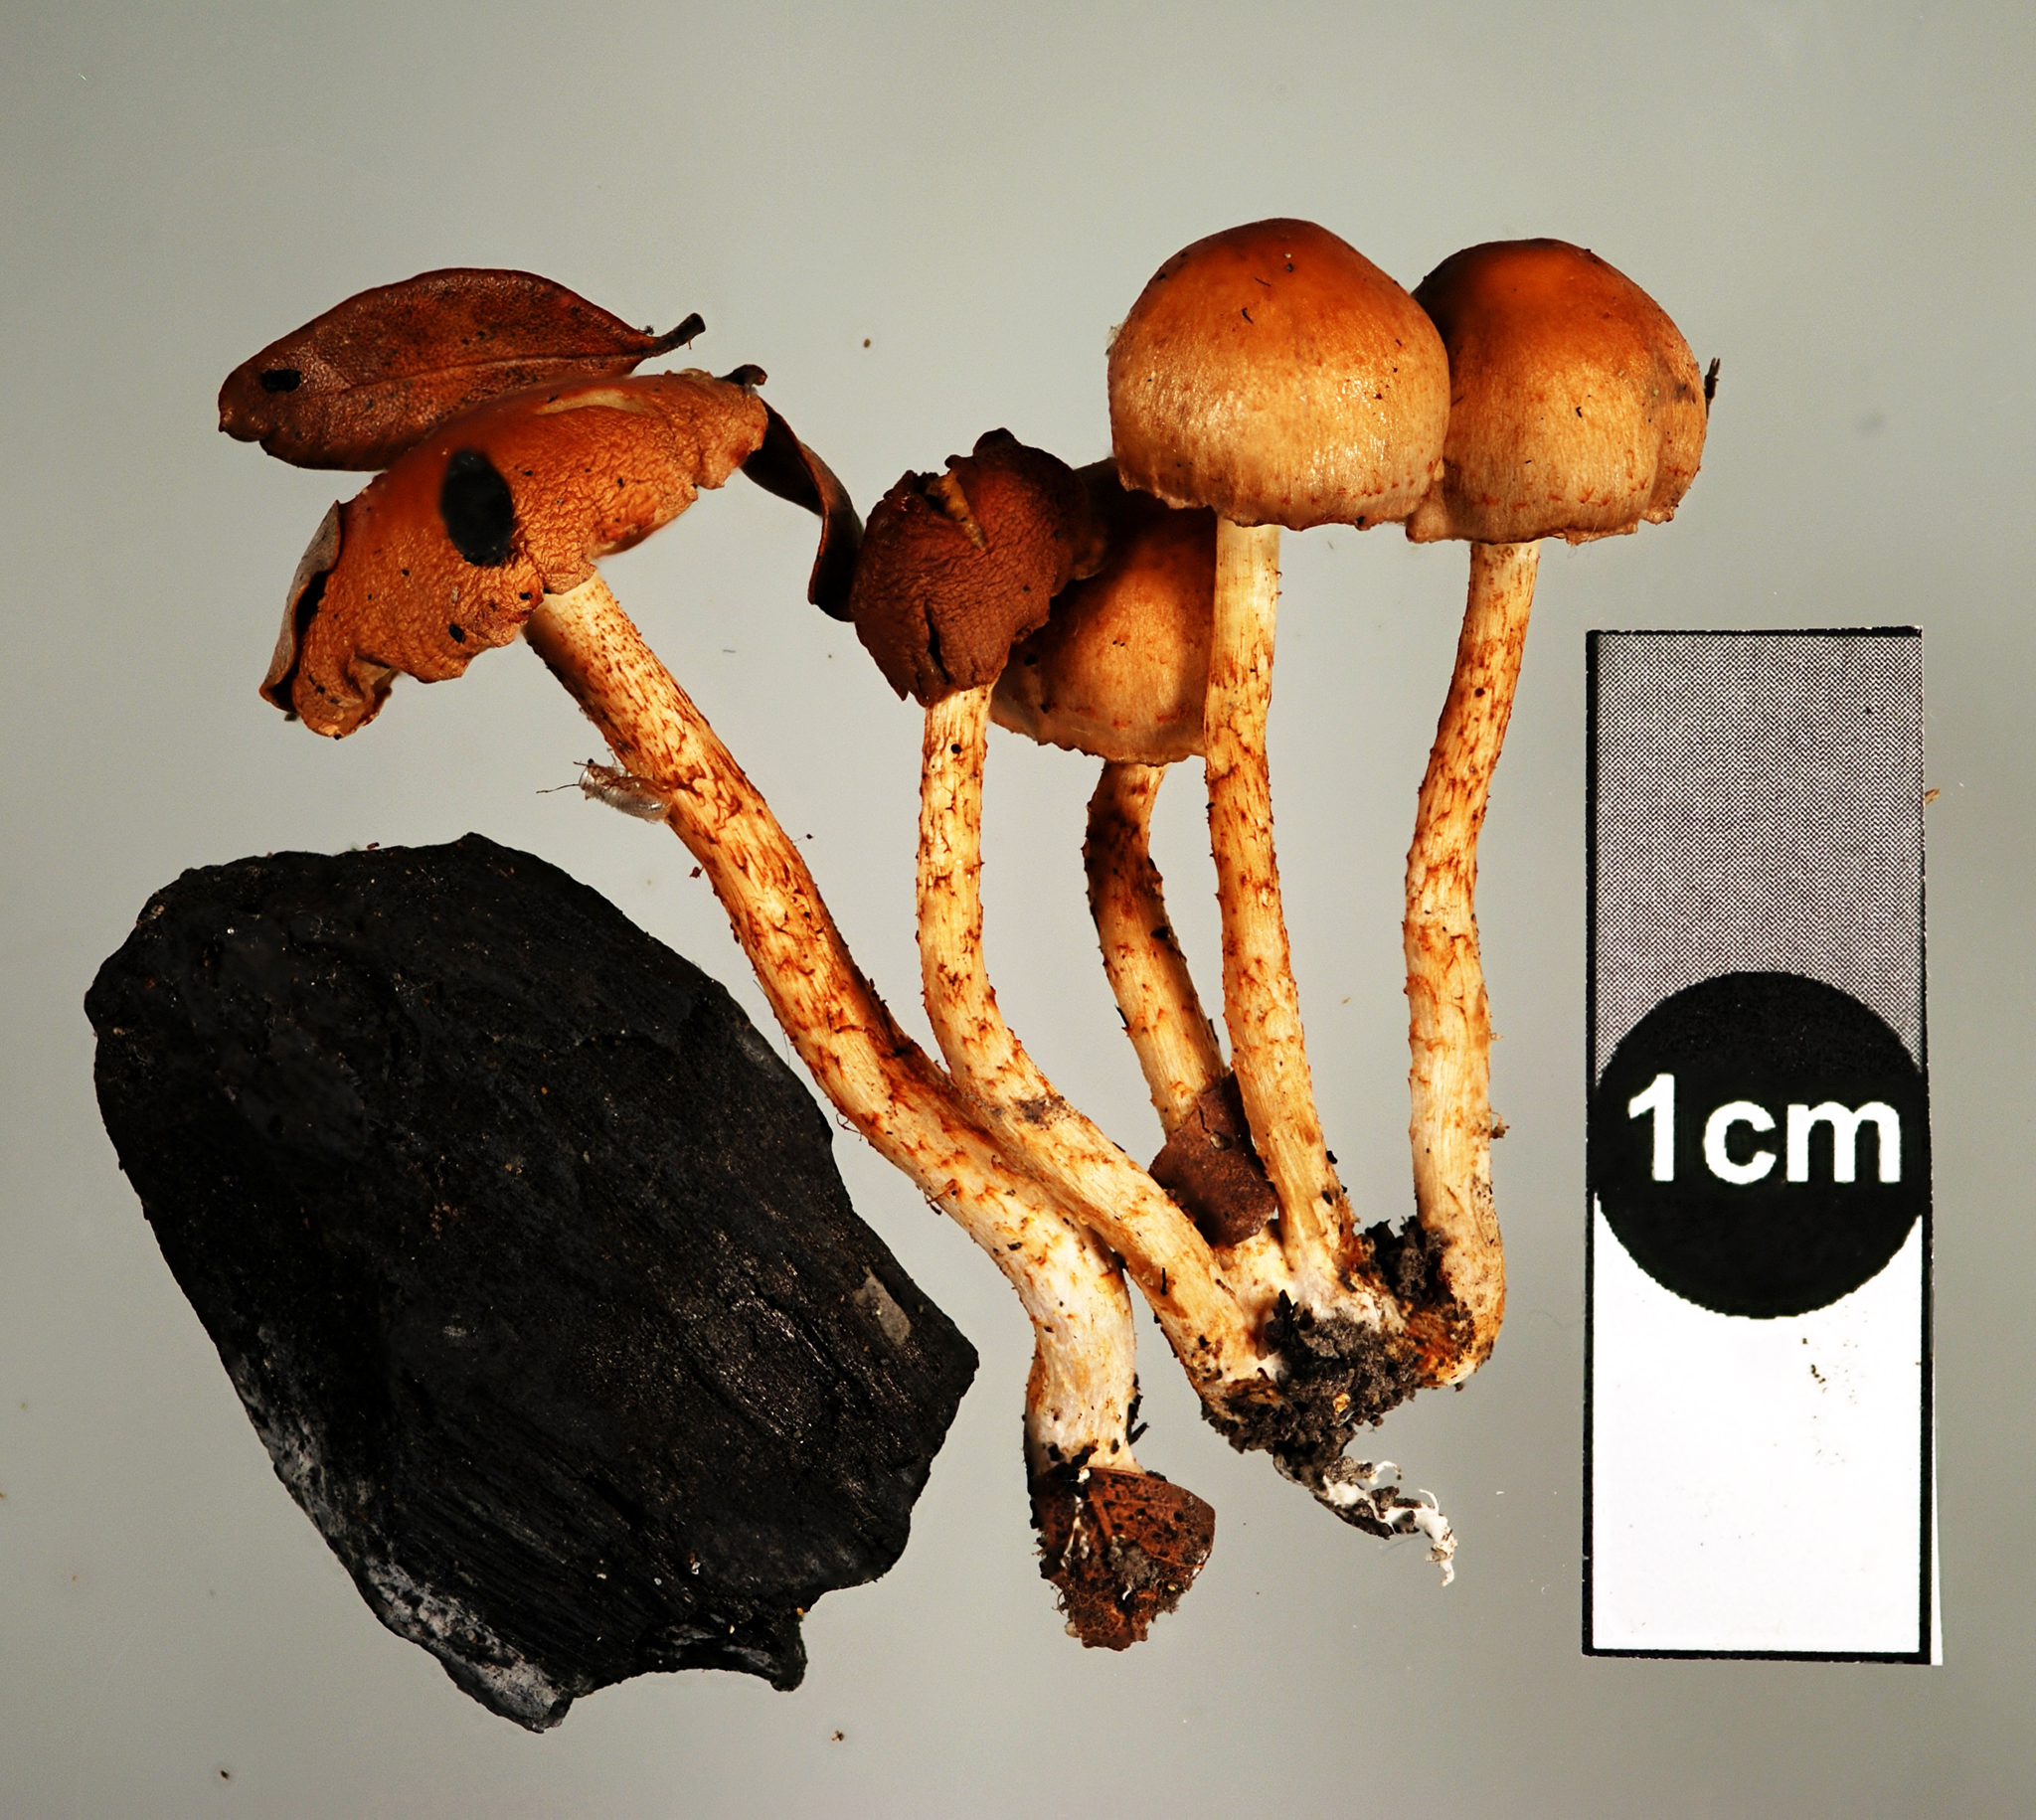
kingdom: Fungi
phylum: Basidiomycota
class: Agaricomycetes
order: Agaricales
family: Strophariaceae
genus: Pholiota
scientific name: Pholiota marangania
